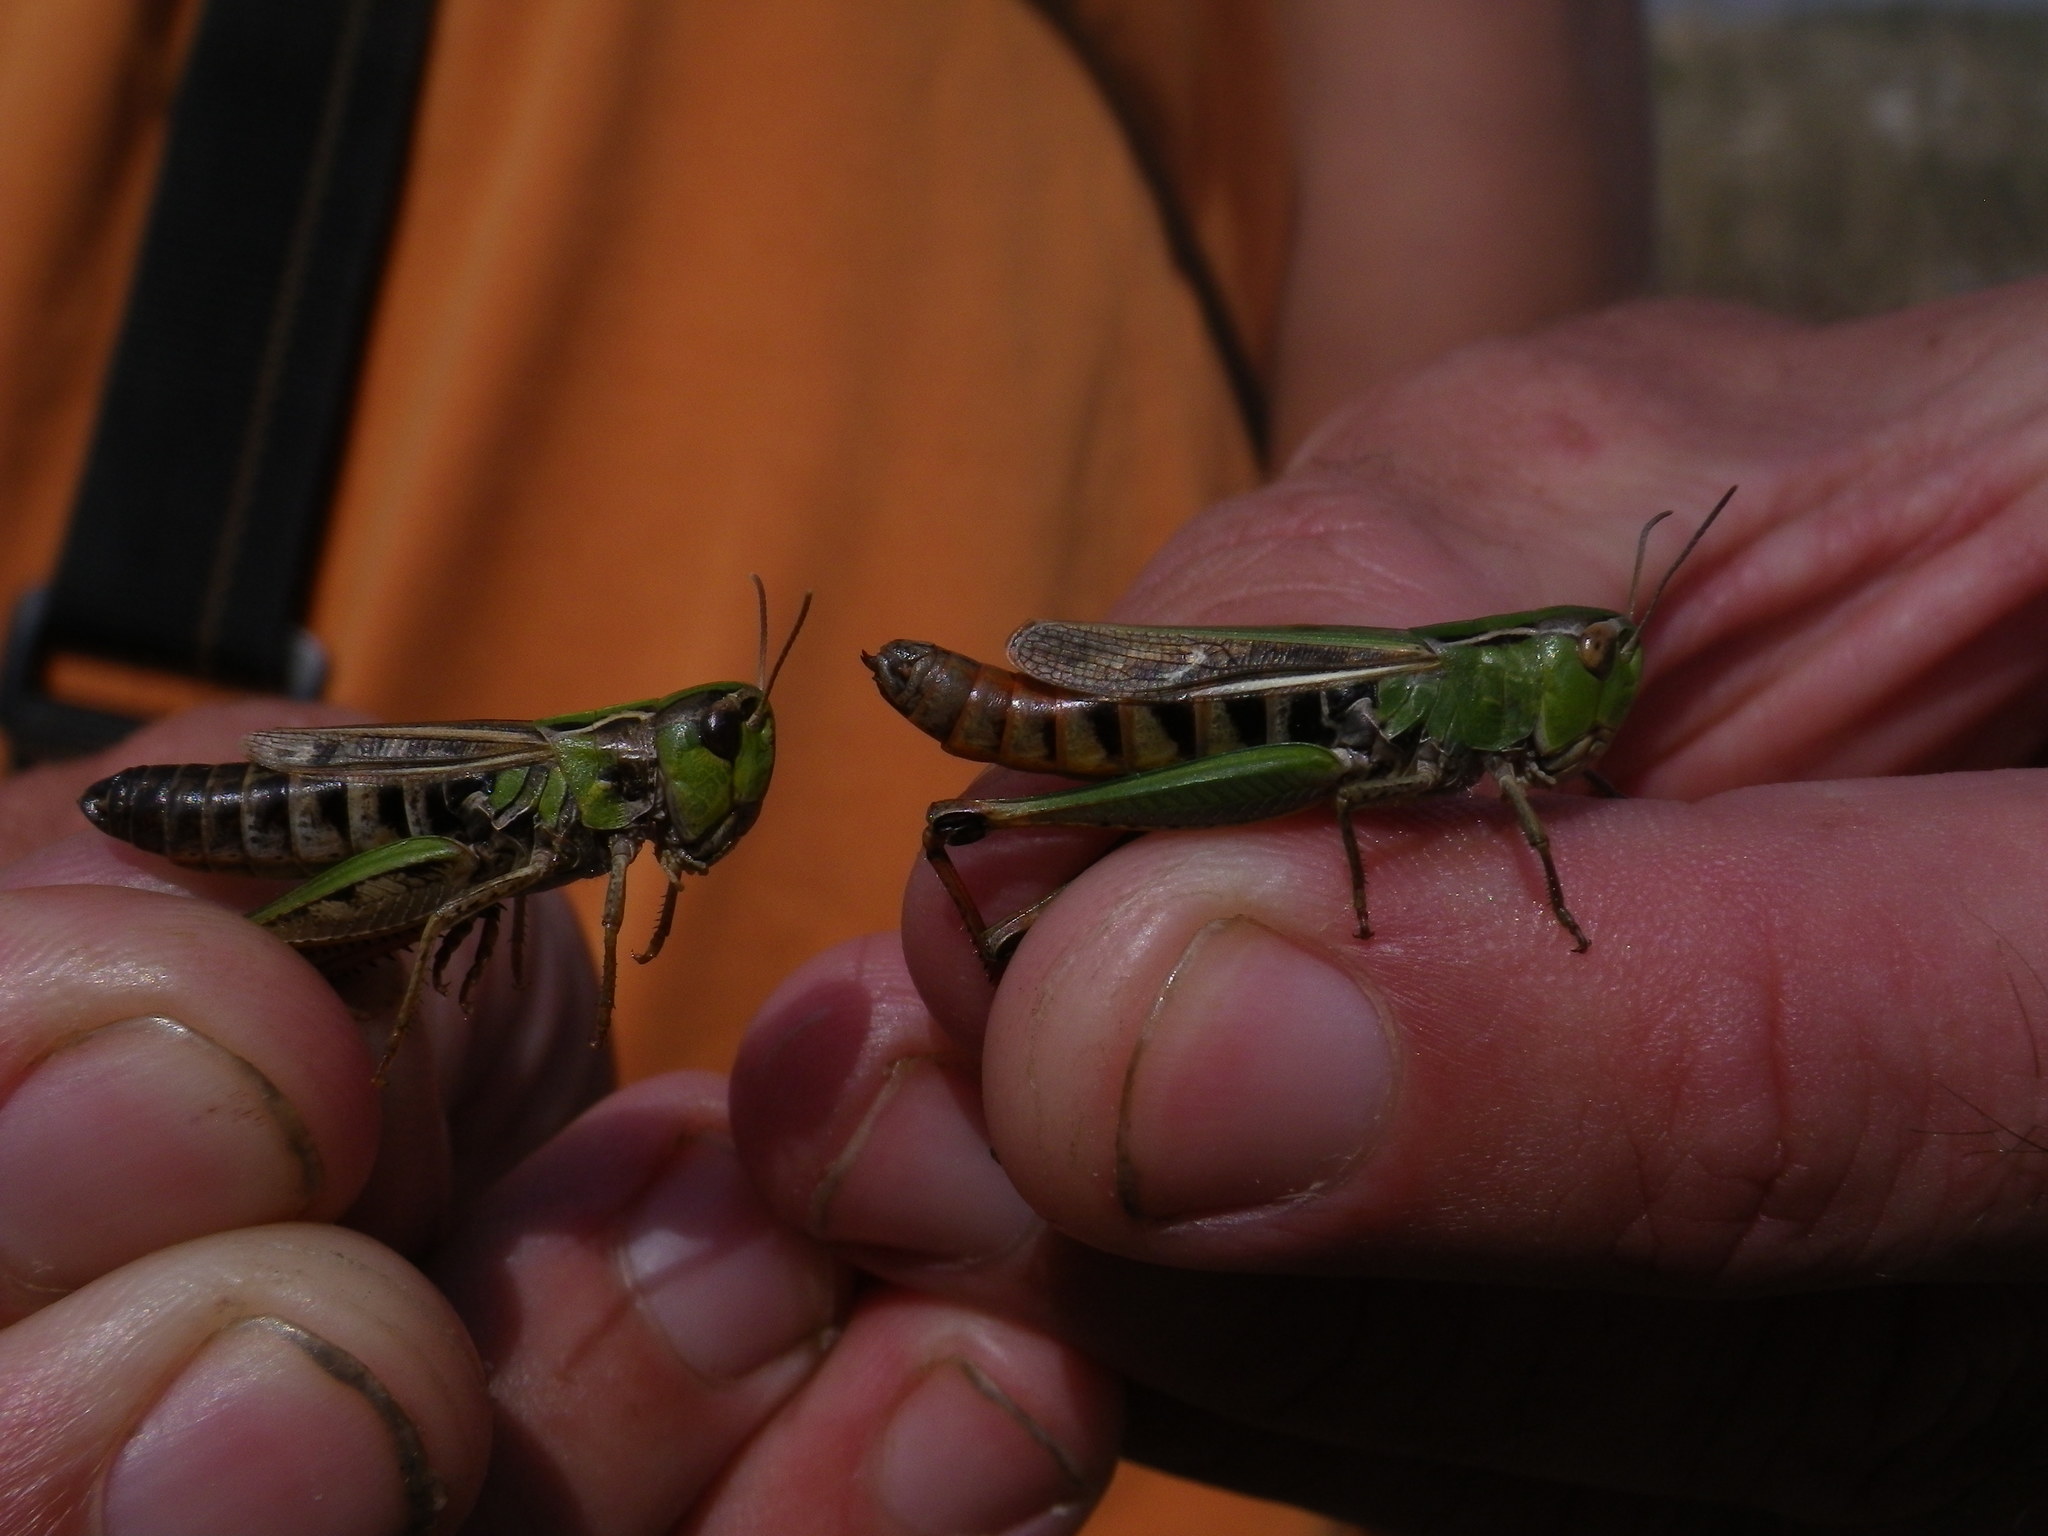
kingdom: Animalia
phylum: Arthropoda
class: Insecta
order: Orthoptera
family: Acrididae
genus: Stenobothrus
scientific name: Stenobothrus nigromaculatus
